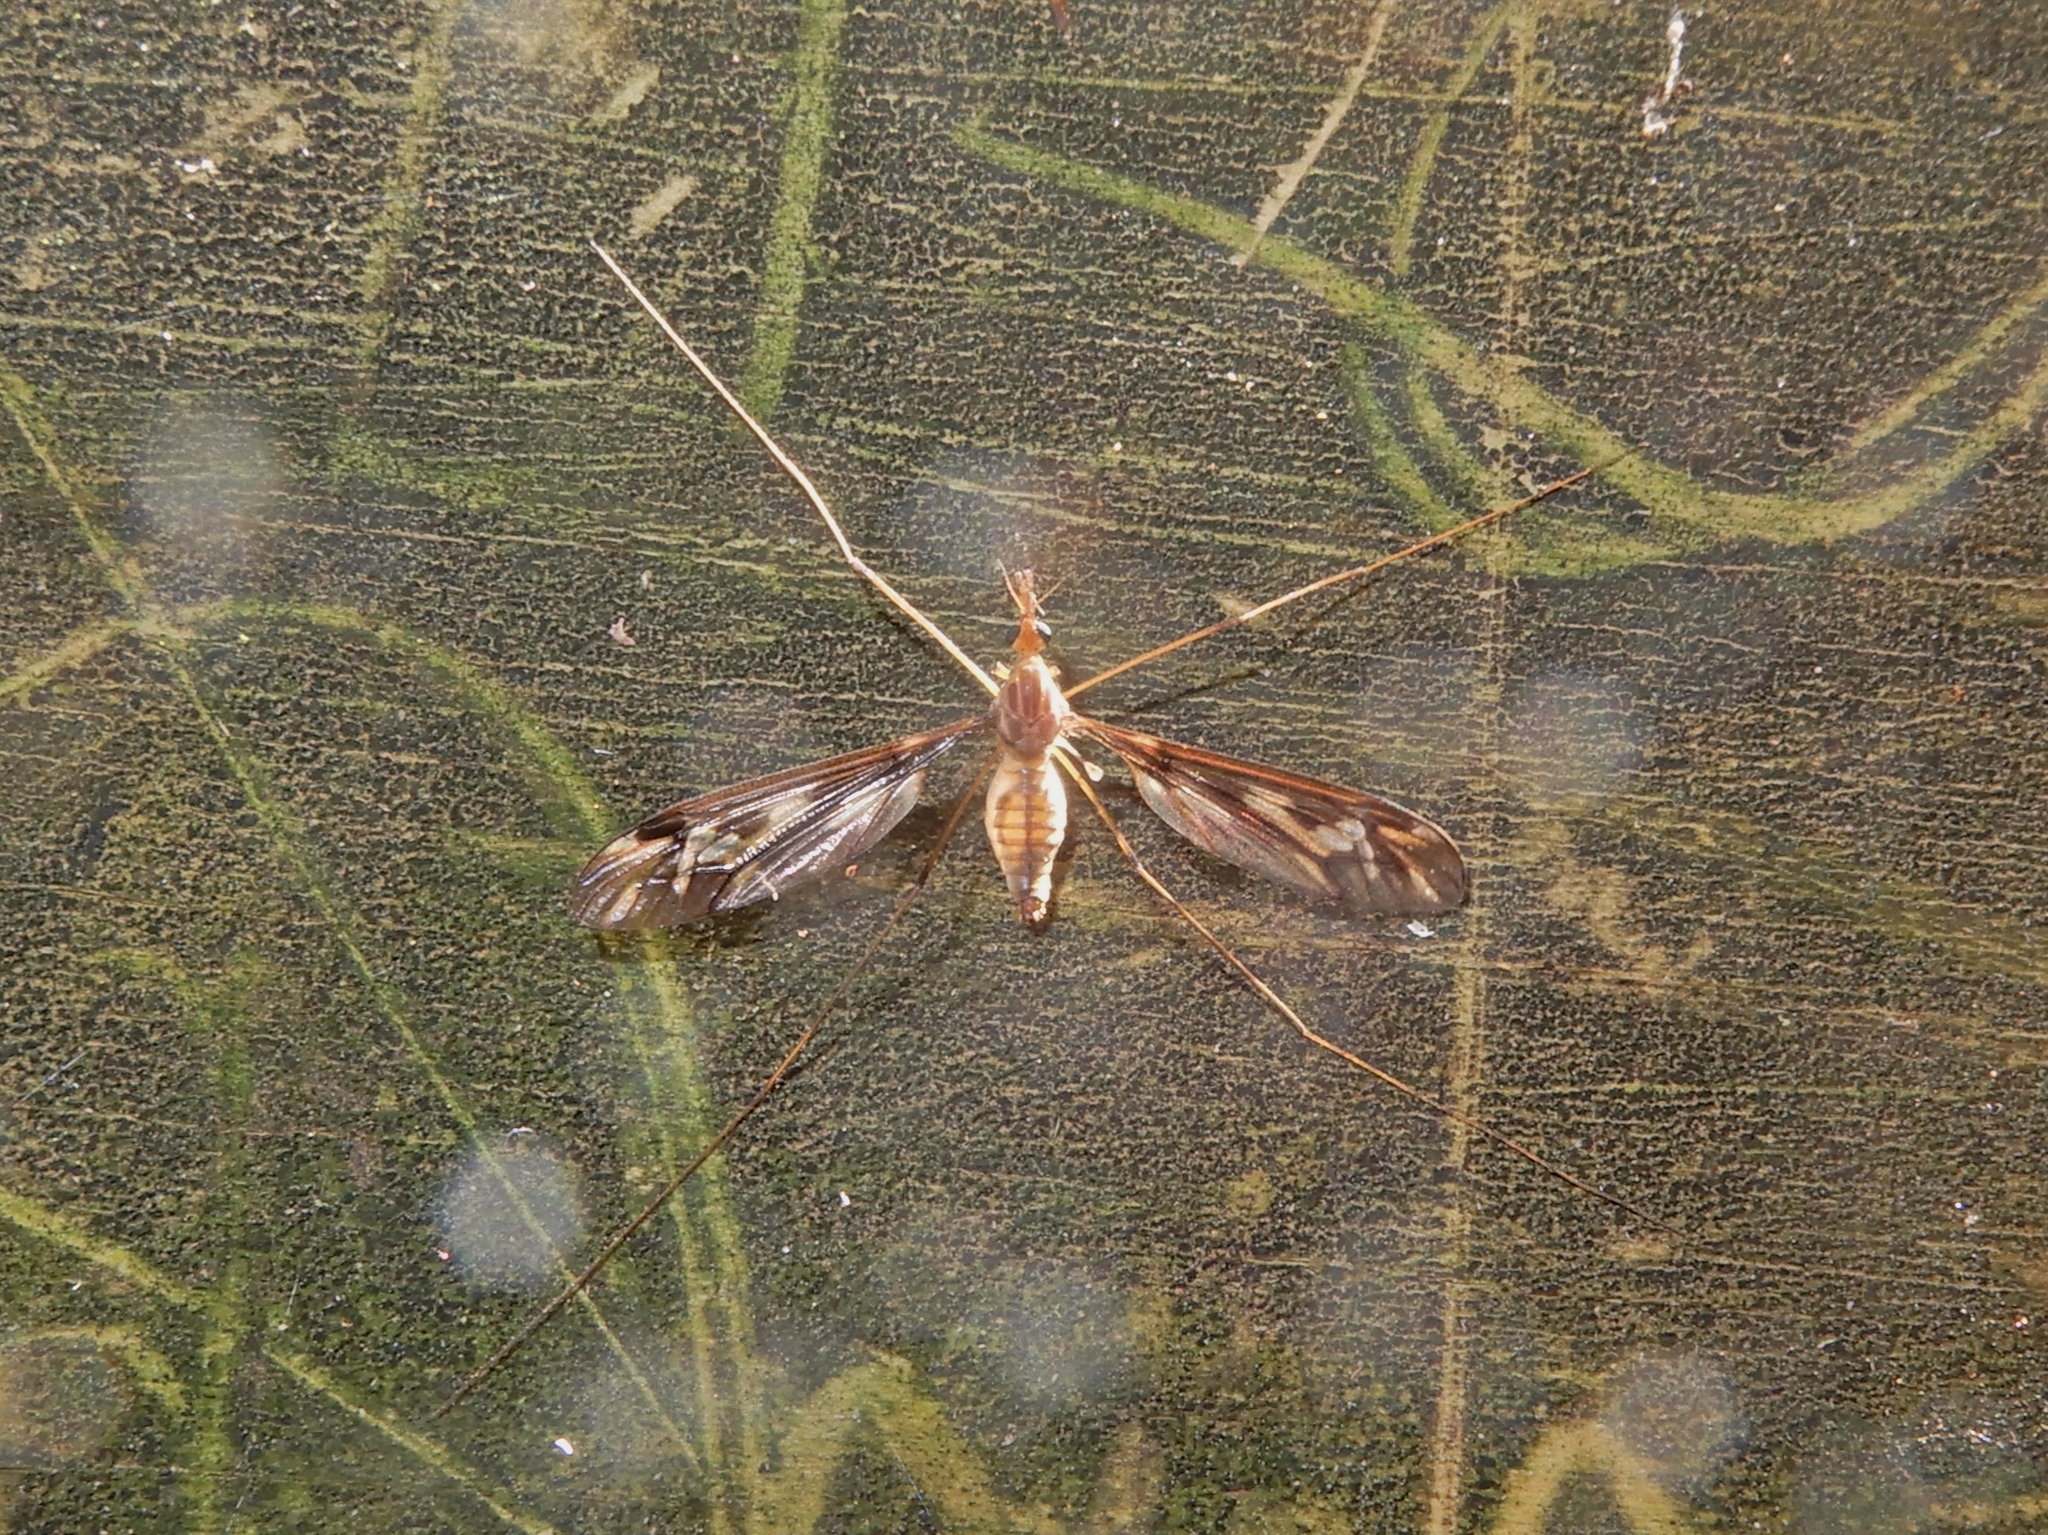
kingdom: Animalia
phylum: Arthropoda
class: Insecta
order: Diptera
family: Tipulidae
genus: Leptotarsus
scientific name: Leptotarsus huttoni
